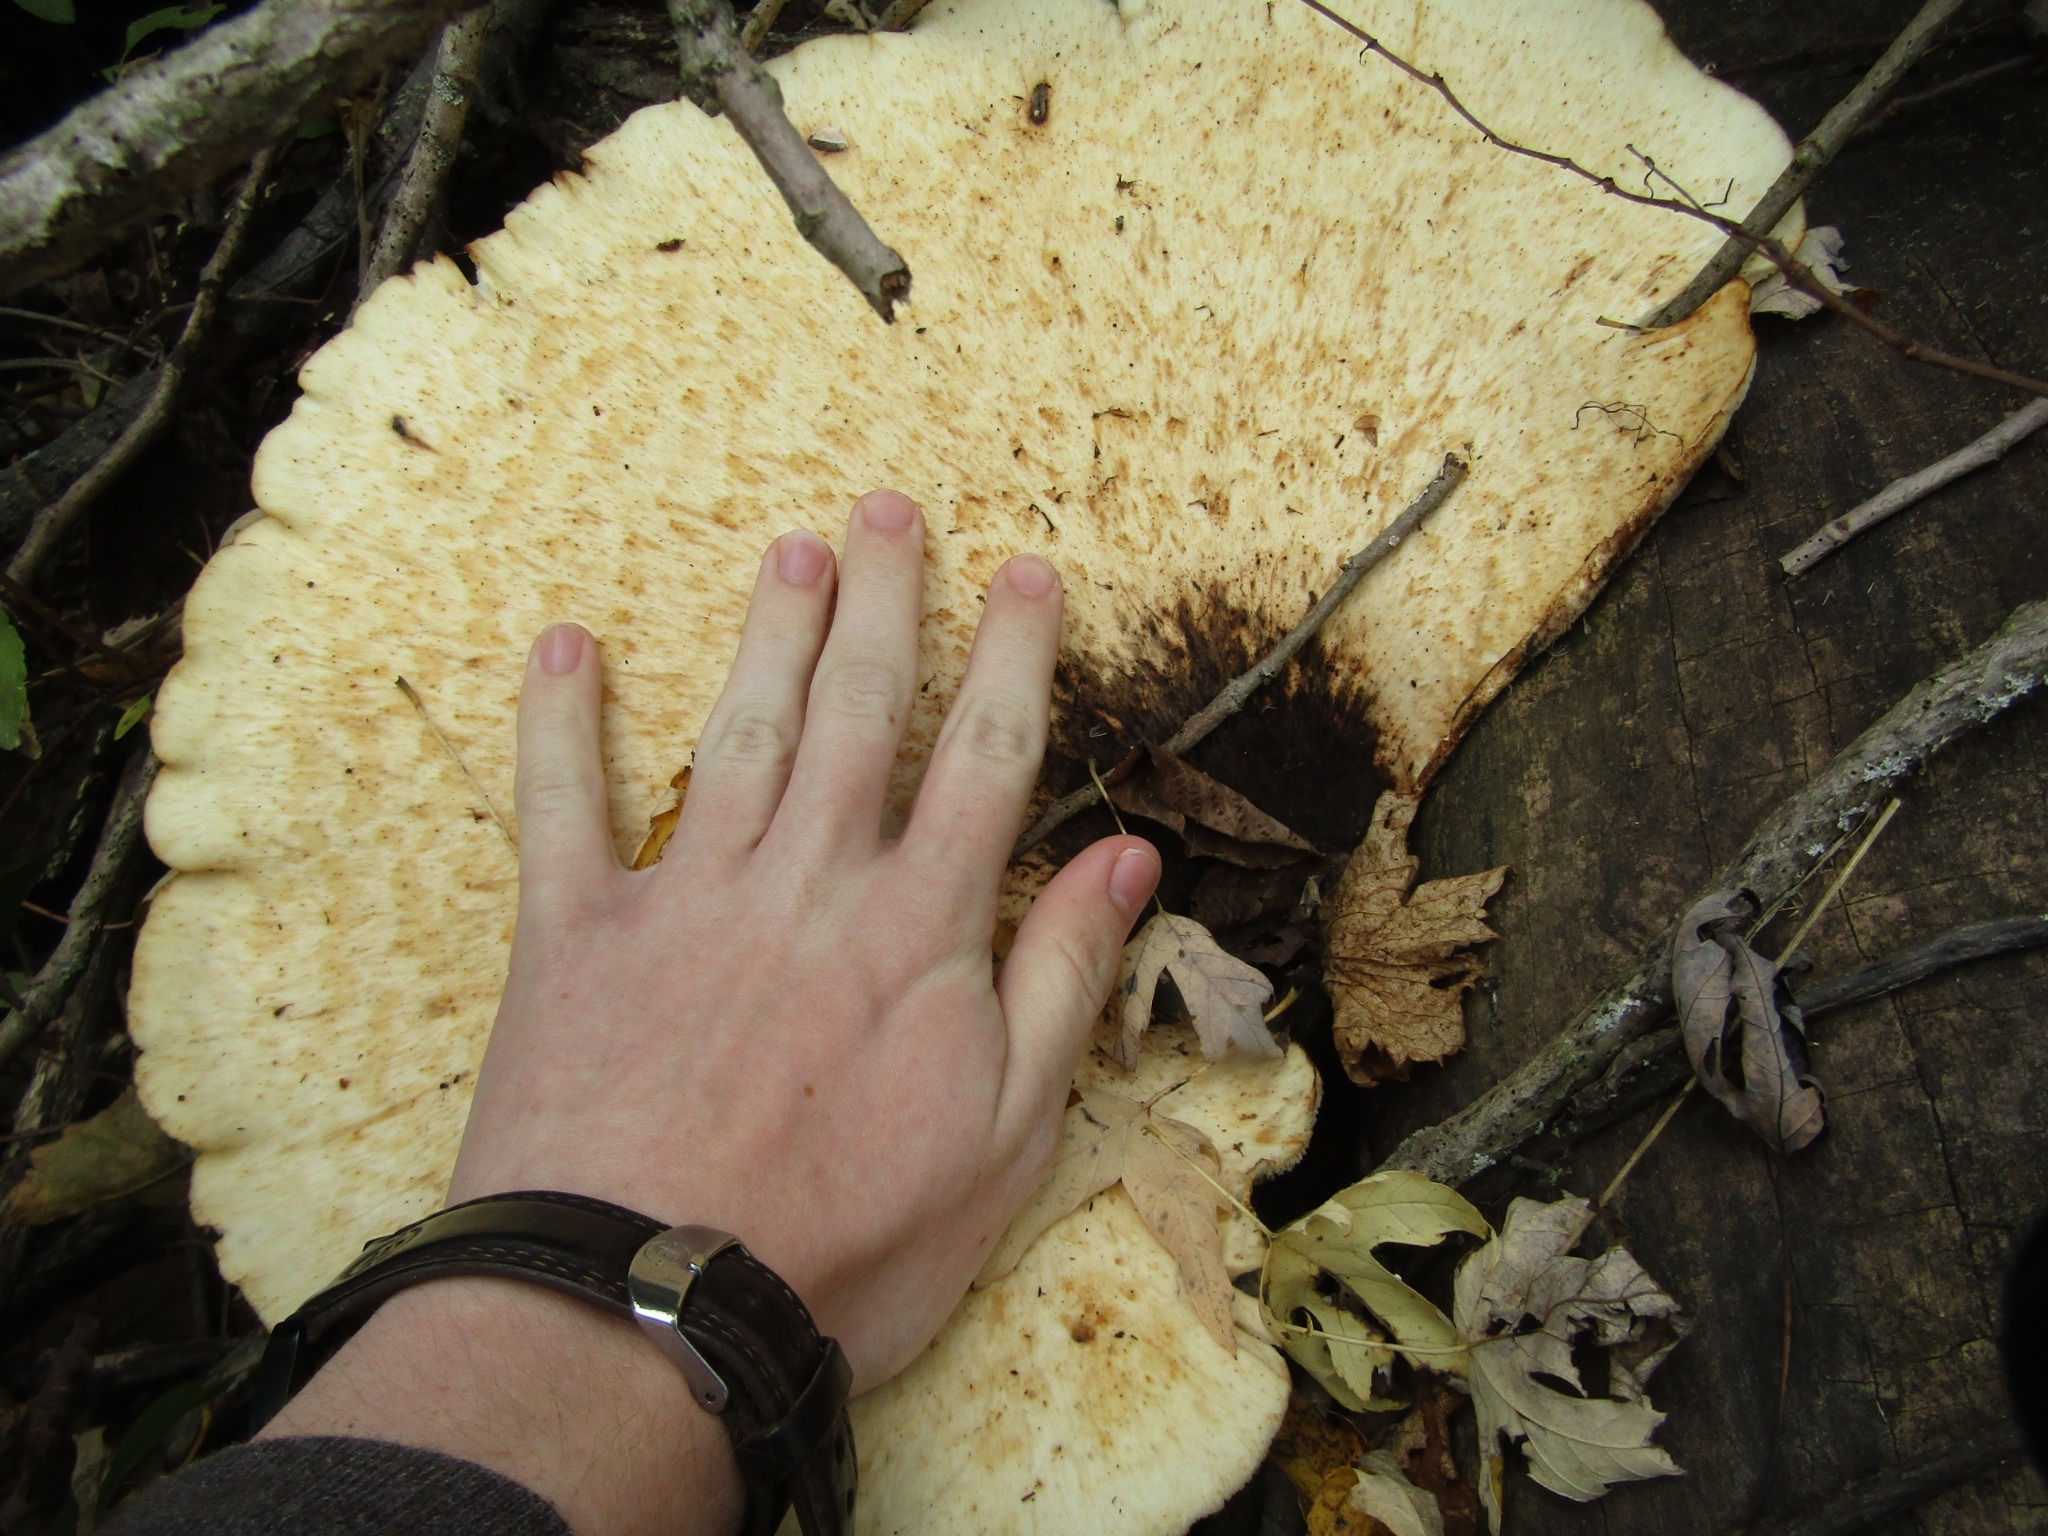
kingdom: Fungi
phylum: Basidiomycota
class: Agaricomycetes
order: Polyporales
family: Polyporaceae
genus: Cerioporus
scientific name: Cerioporus squamosus
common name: Dryad's saddle
